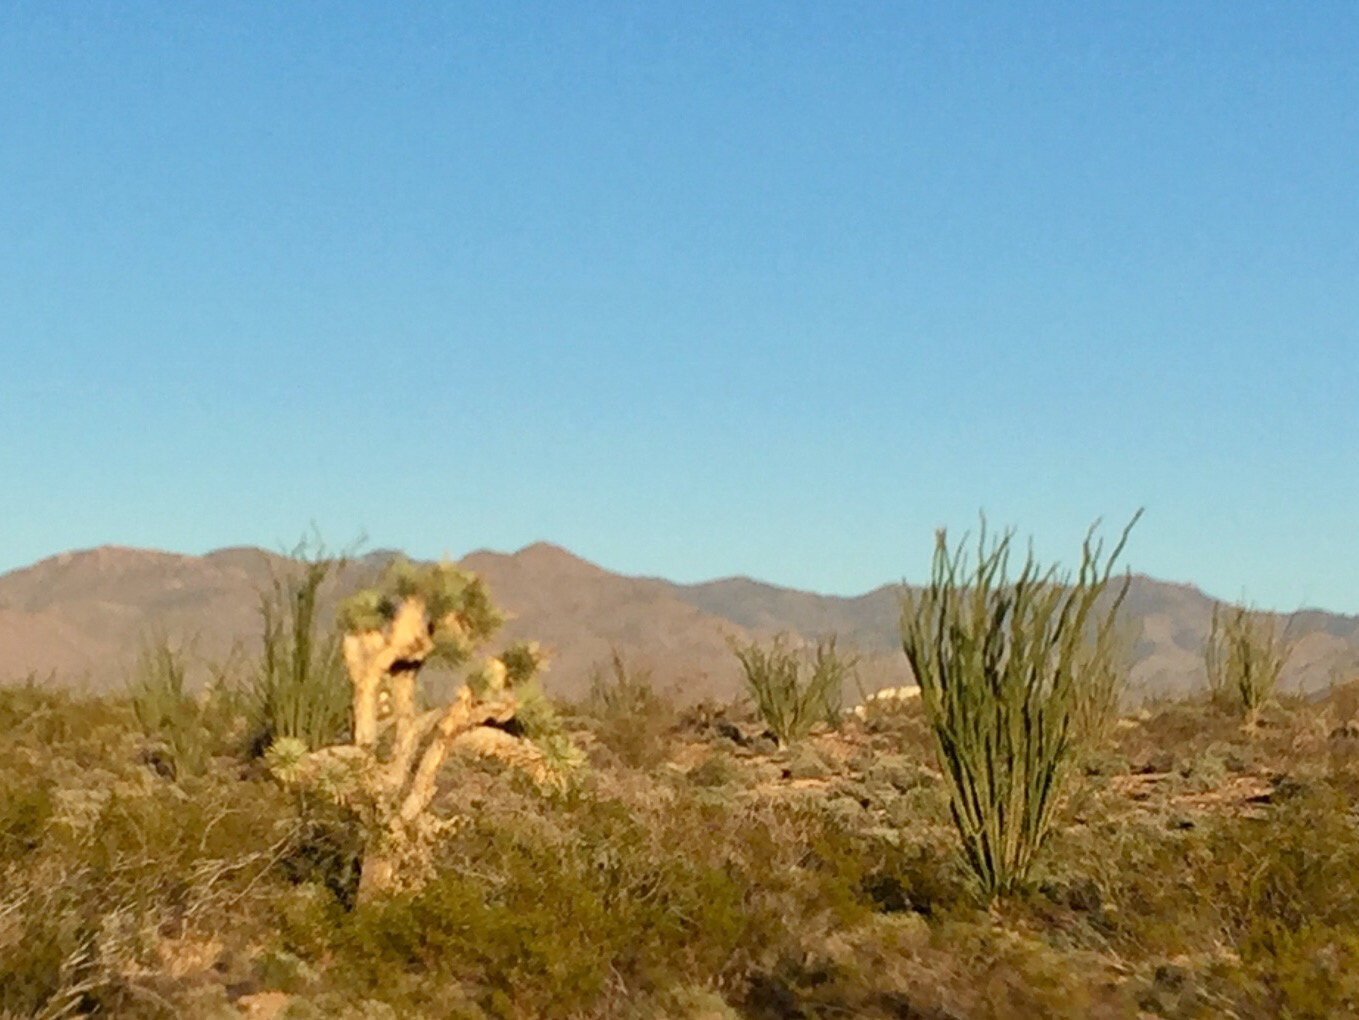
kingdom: Plantae
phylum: Tracheophyta
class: Liliopsida
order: Asparagales
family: Asparagaceae
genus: Yucca
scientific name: Yucca brevifolia
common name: Joshua tree
